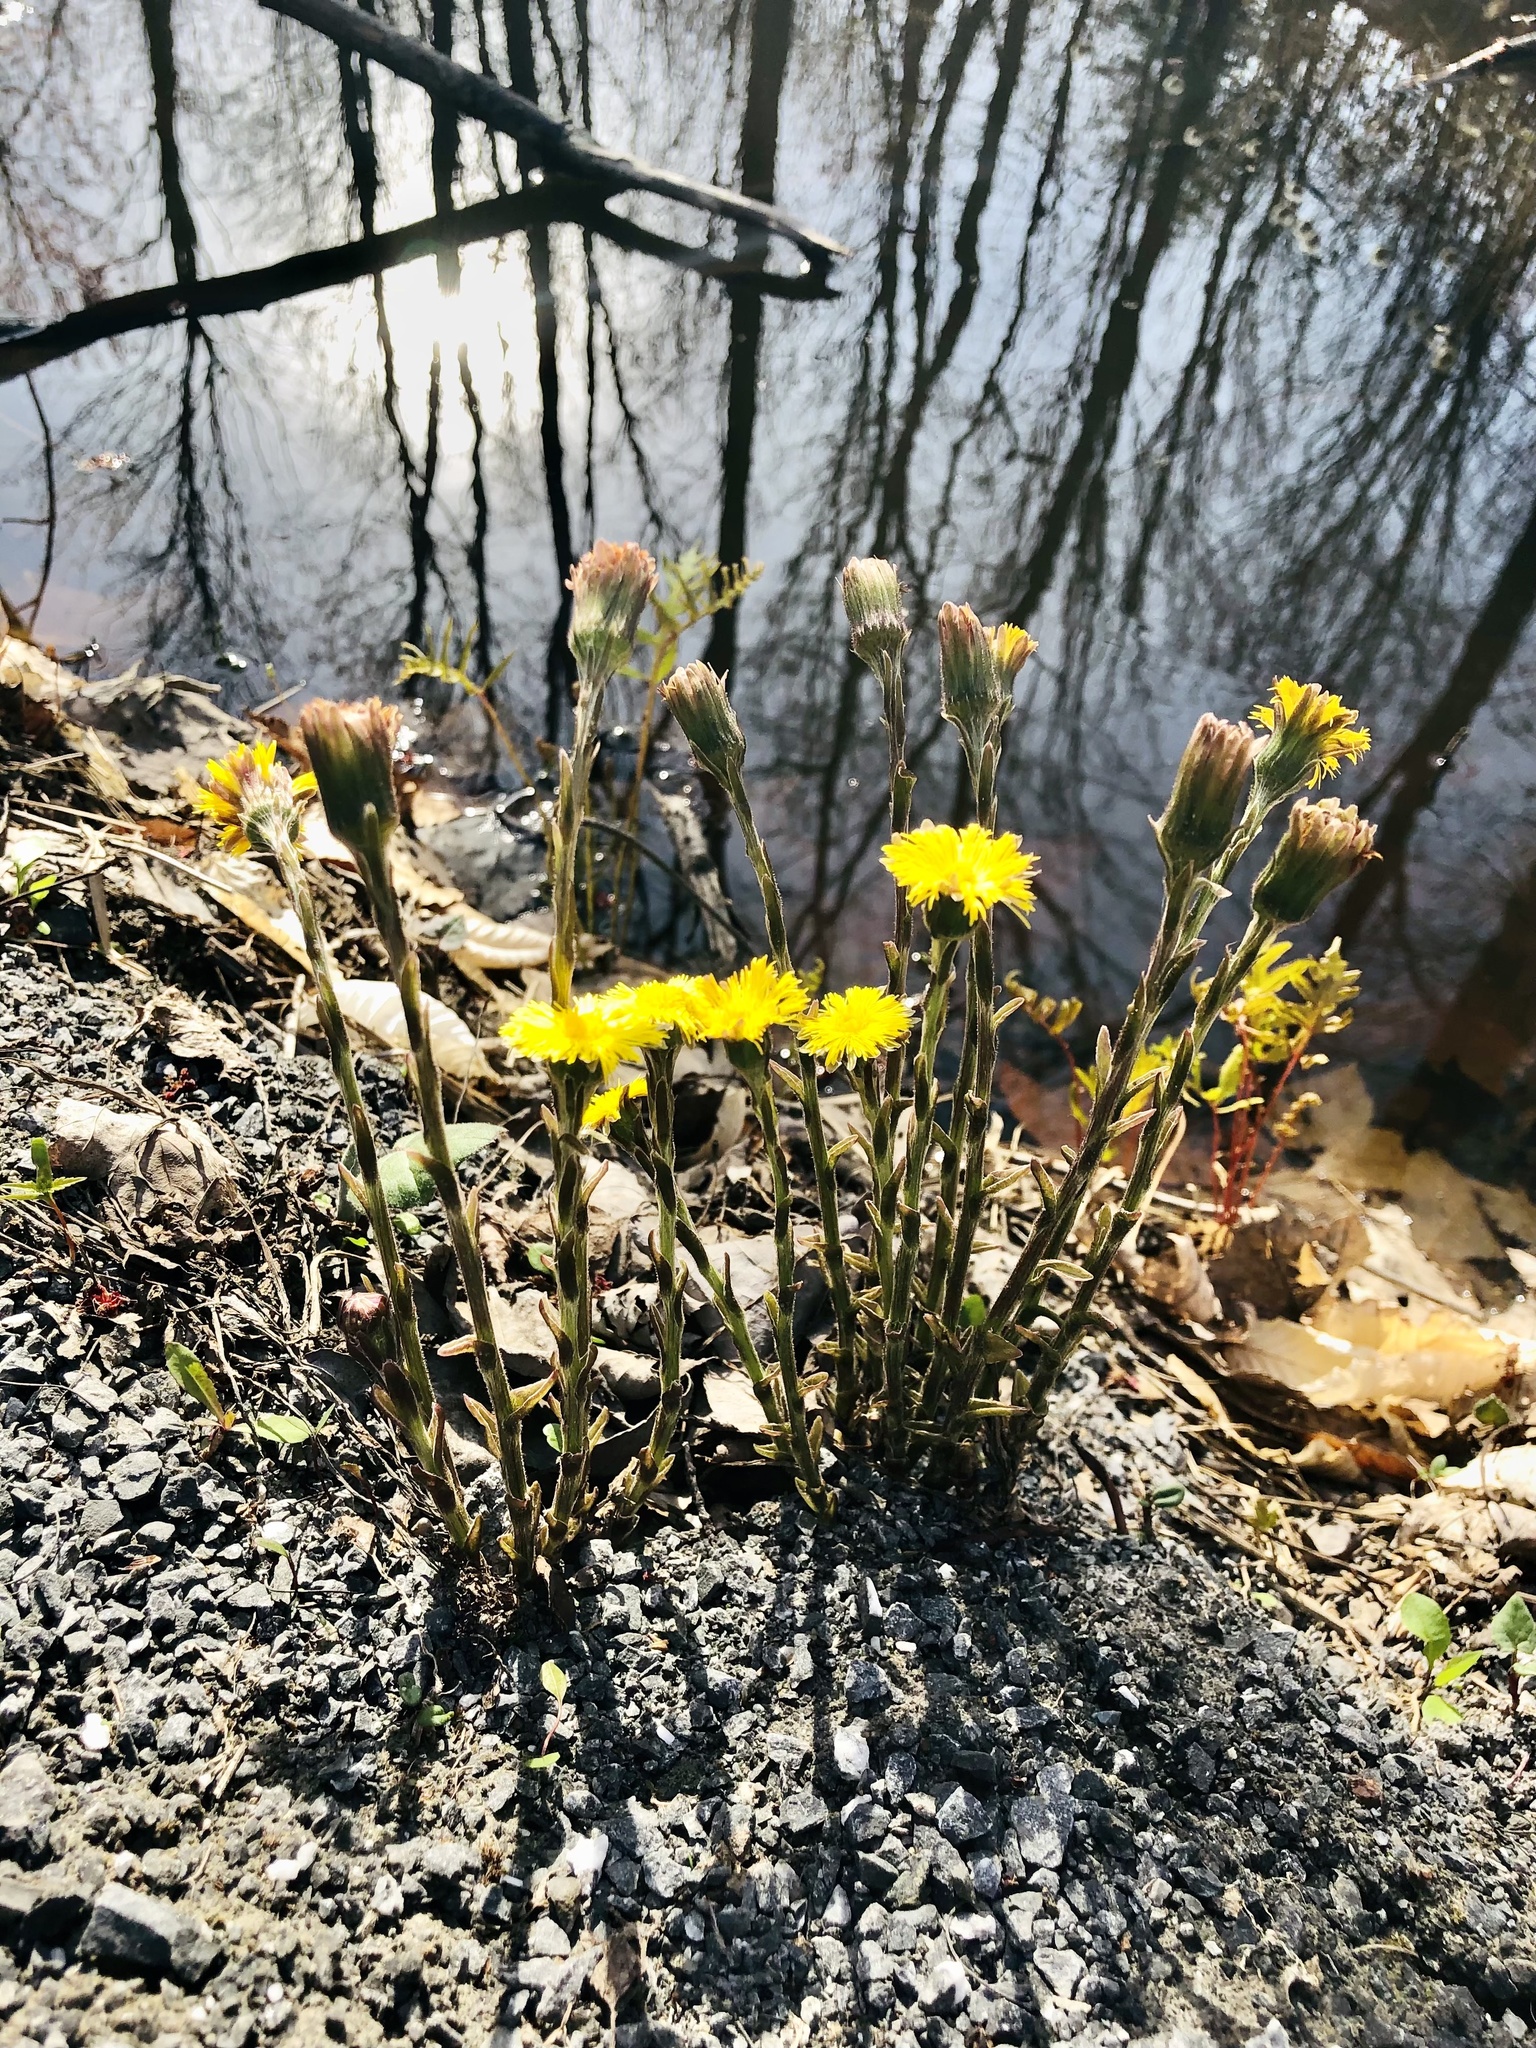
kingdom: Plantae
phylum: Tracheophyta
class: Magnoliopsida
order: Asterales
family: Asteraceae
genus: Tussilago
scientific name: Tussilago farfara
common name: Coltsfoot
